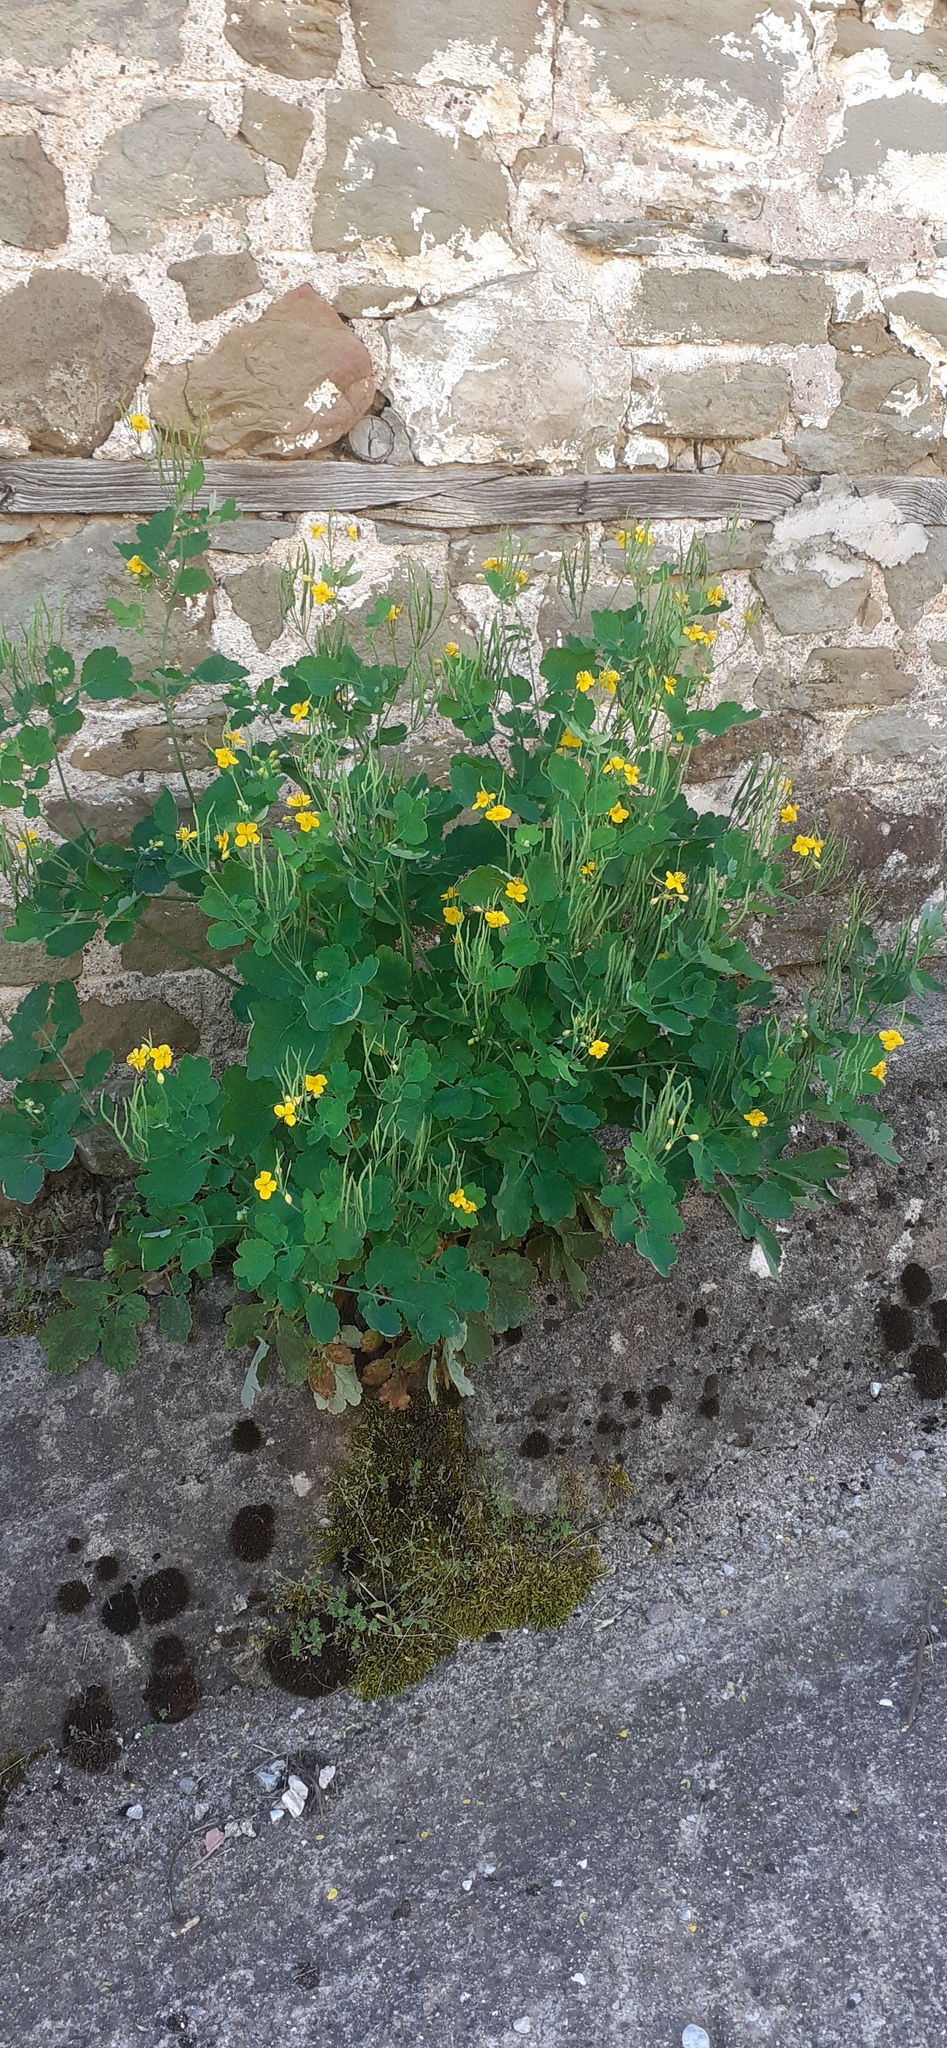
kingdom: Plantae
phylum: Tracheophyta
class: Magnoliopsida
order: Ranunculales
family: Papaveraceae
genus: Chelidonium
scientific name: Chelidonium majus
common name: Greater celandine
